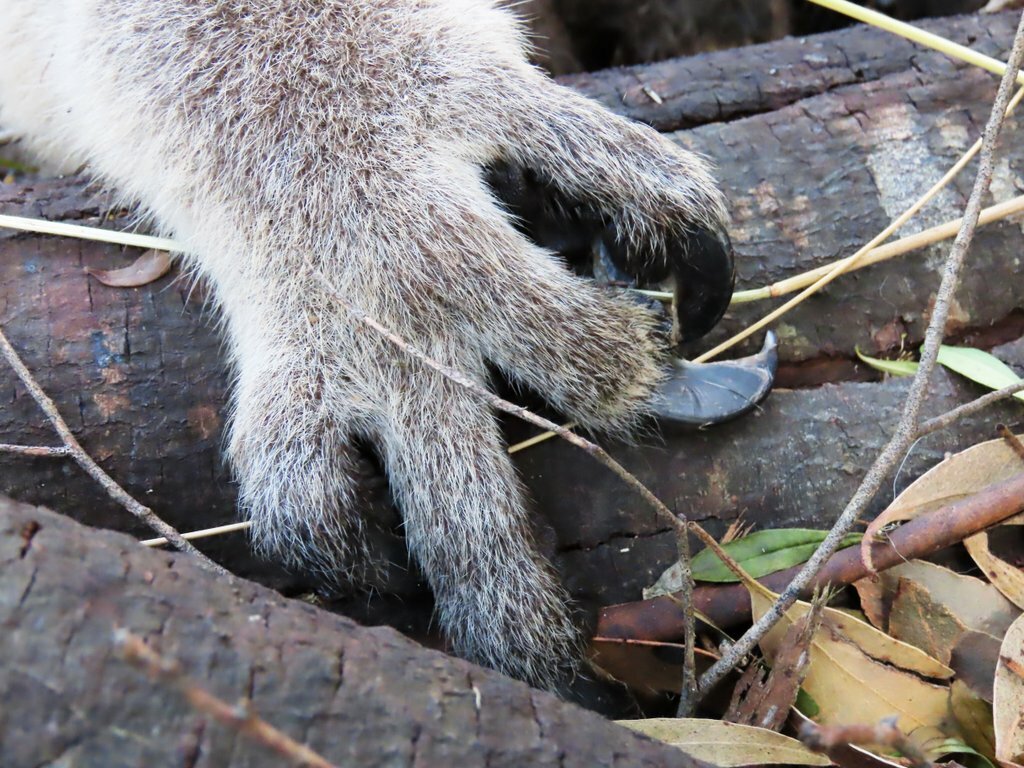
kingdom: Animalia
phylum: Chordata
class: Mammalia
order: Diprotodontia
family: Phascolarctidae
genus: Phascolarctos
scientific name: Phascolarctos cinereus
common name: Koala
